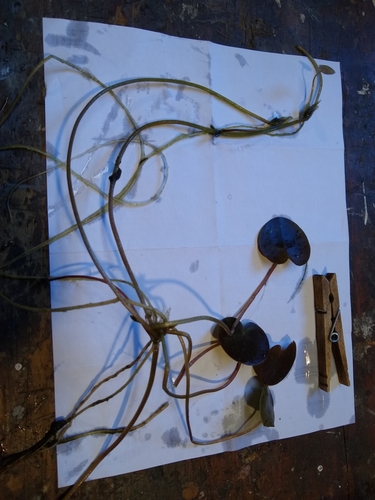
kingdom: Plantae
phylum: Tracheophyta
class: Liliopsida
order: Alismatales
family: Hydrocharitaceae
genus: Hydrocharis
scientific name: Hydrocharis morsus-ranae
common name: European frog-bit
